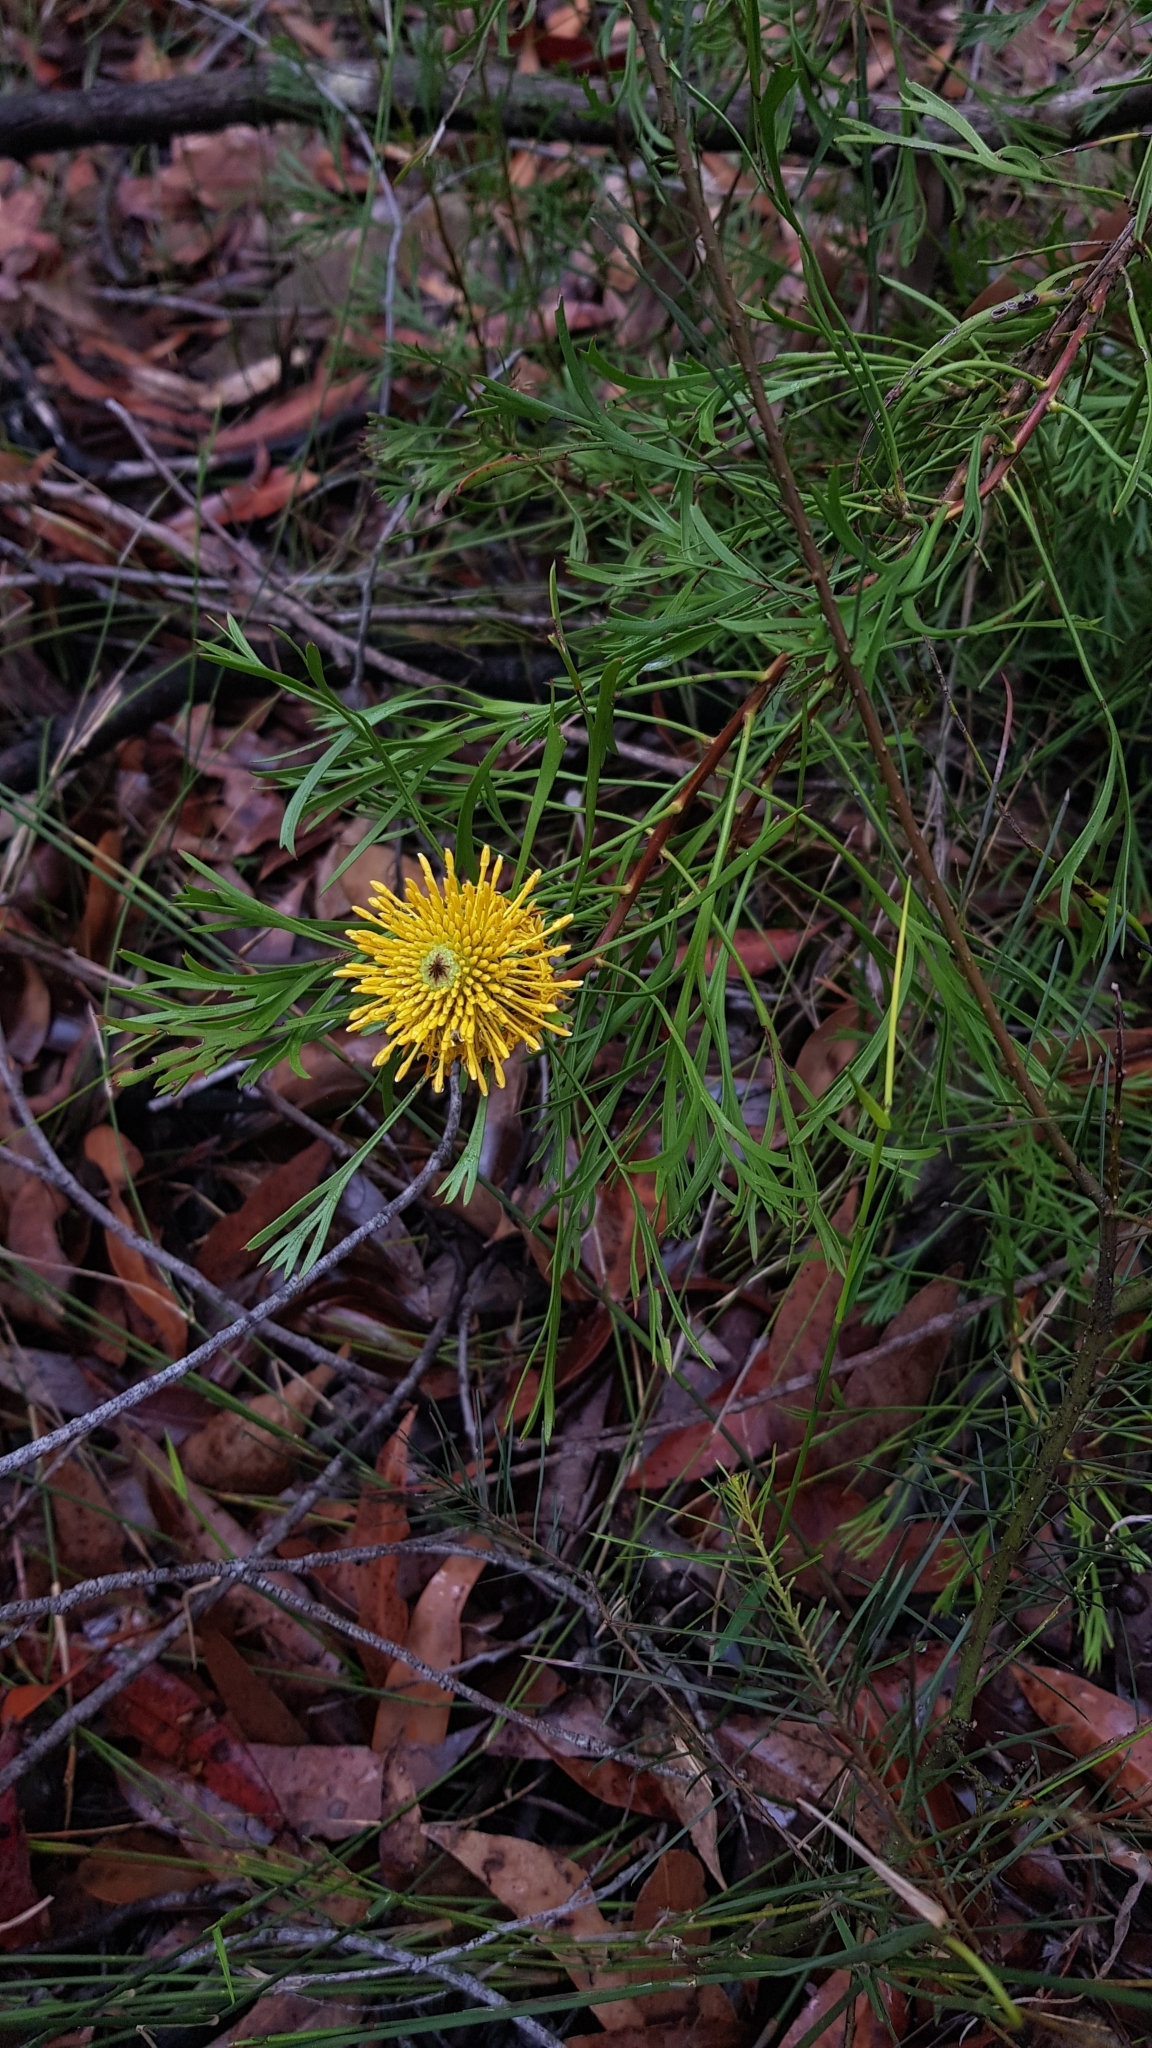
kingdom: Plantae
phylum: Tracheophyta
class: Magnoliopsida
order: Proteales
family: Proteaceae
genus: Isopogon
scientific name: Isopogon anemonifolius
